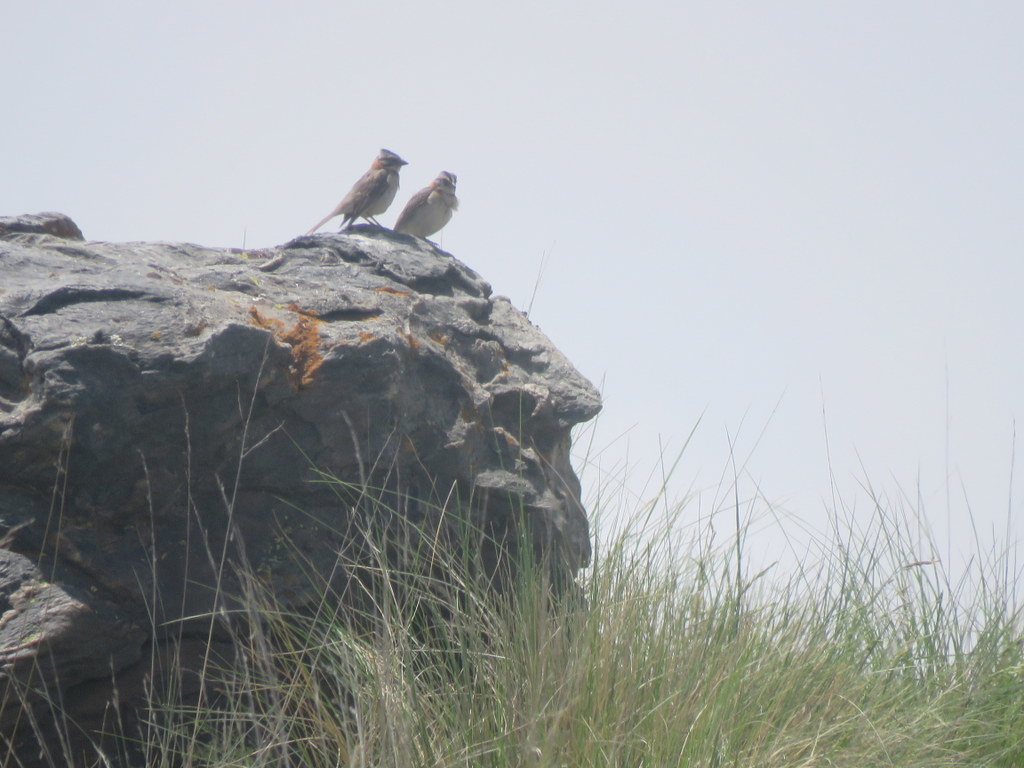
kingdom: Animalia
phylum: Chordata
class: Aves
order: Passeriformes
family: Passerellidae
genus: Zonotrichia
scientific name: Zonotrichia capensis
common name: Rufous-collared sparrow
